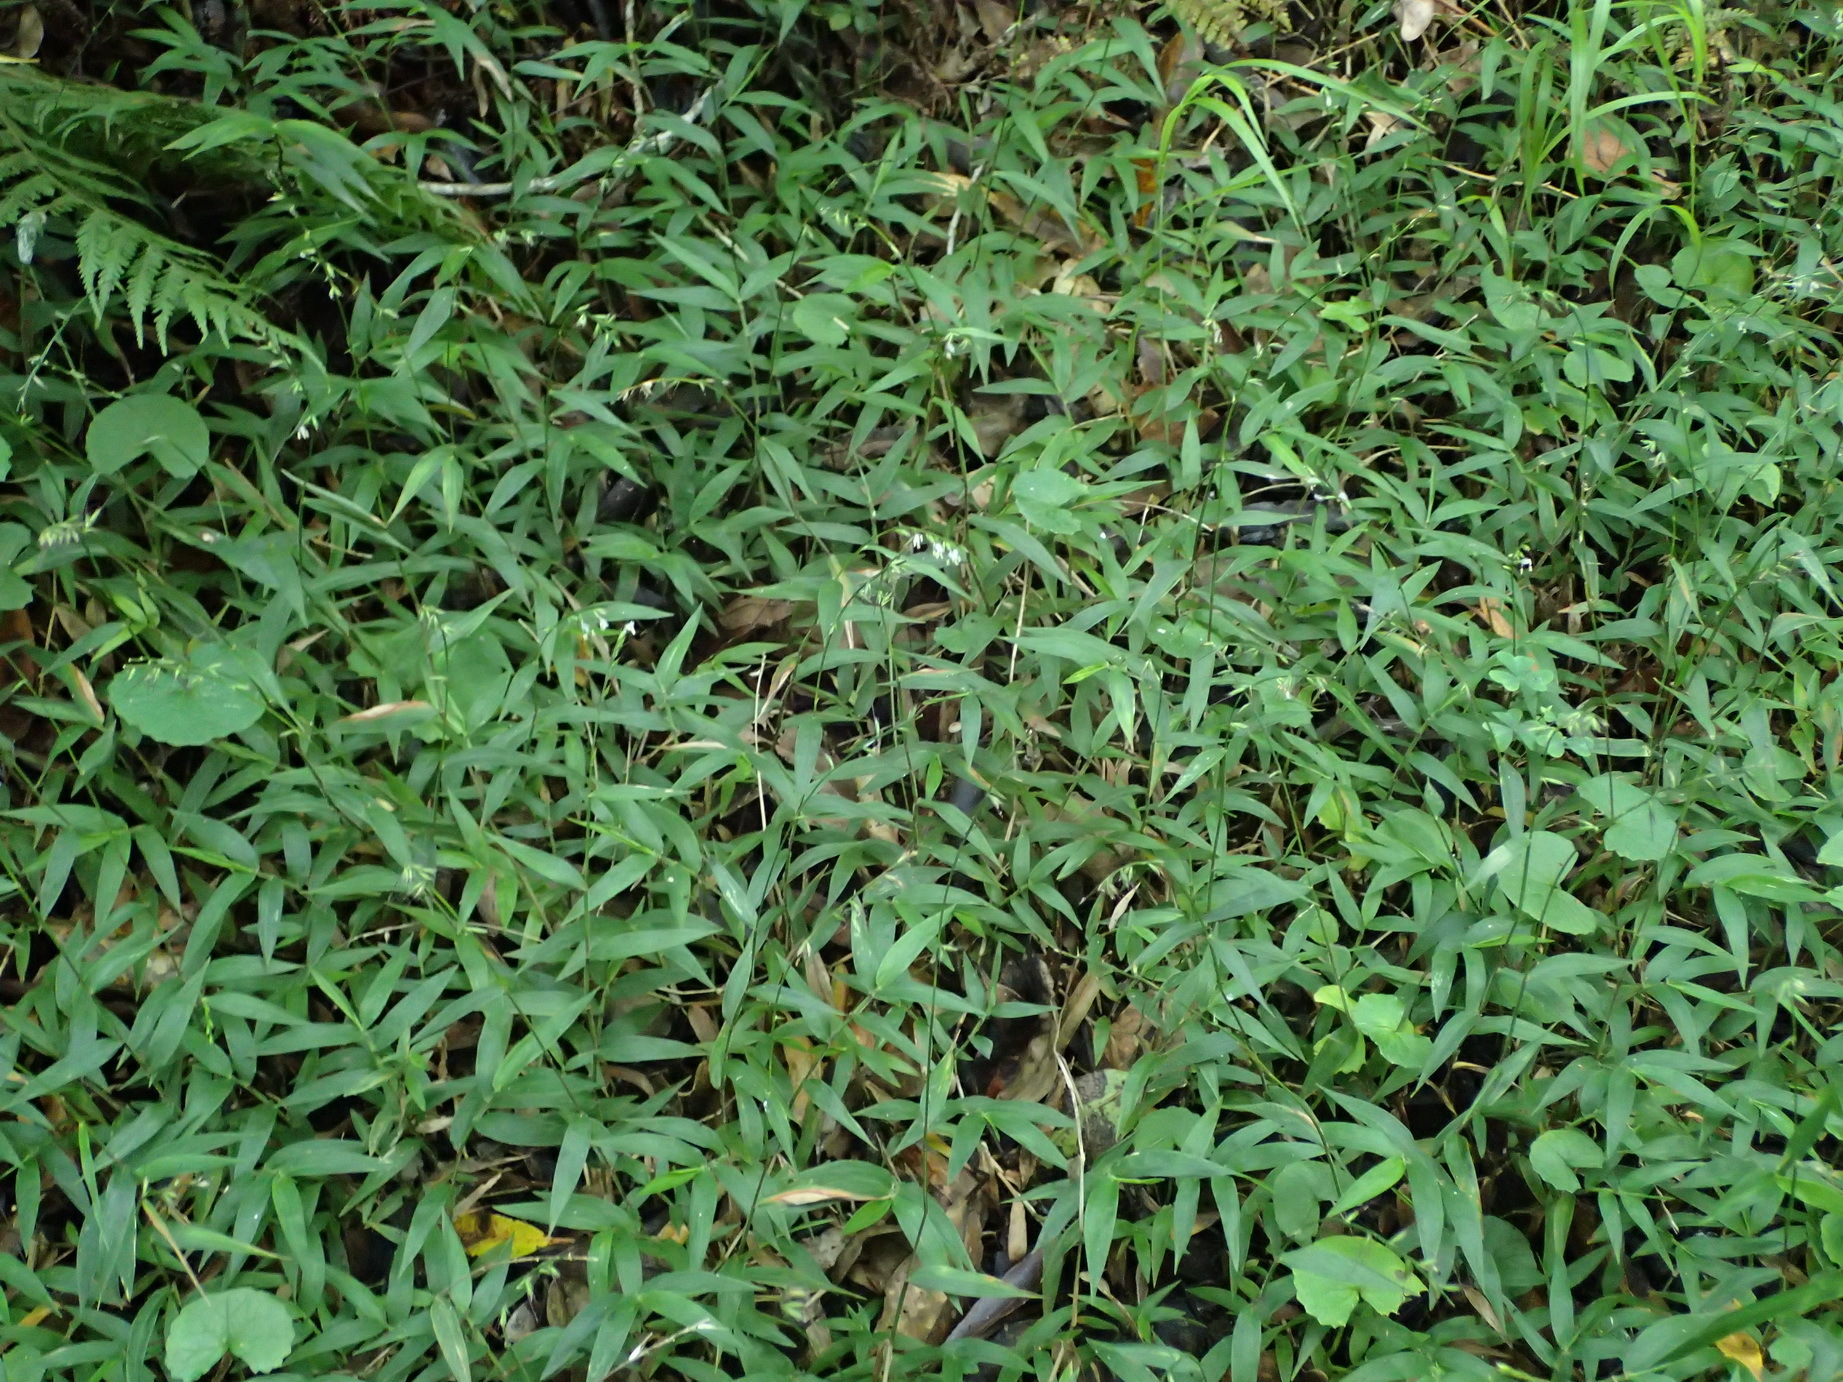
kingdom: Plantae
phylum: Tracheophyta
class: Liliopsida
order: Poales
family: Poaceae
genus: Oplismenus
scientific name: Oplismenus hirtellus
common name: Basketgrass
